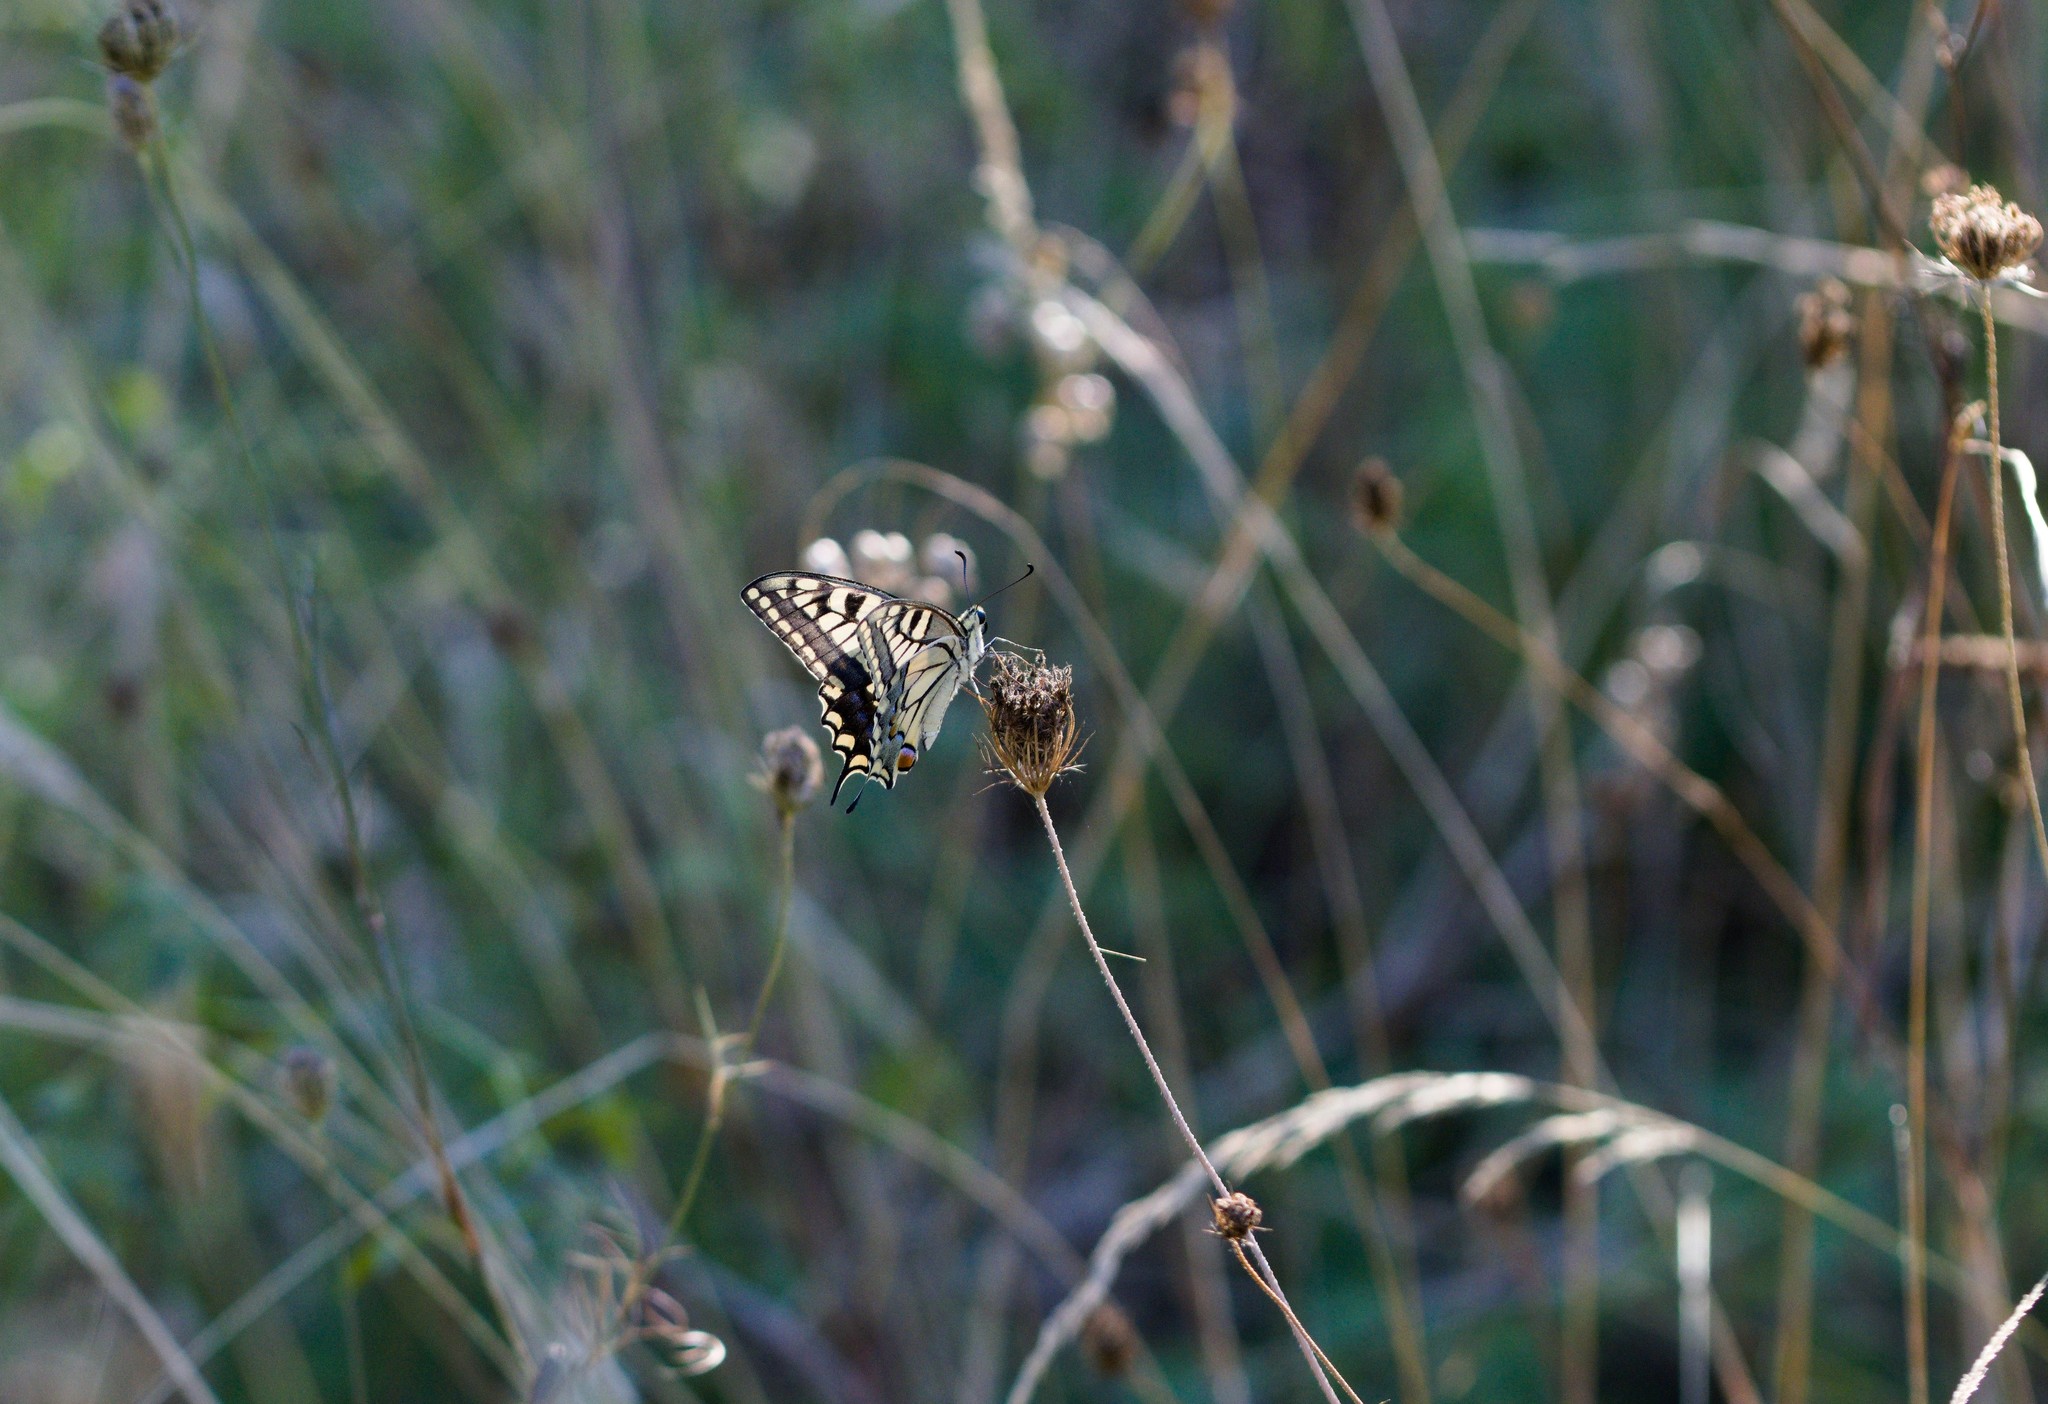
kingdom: Animalia
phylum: Arthropoda
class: Insecta
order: Lepidoptera
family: Papilionidae
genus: Papilio
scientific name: Papilio machaon
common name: Swallowtail
